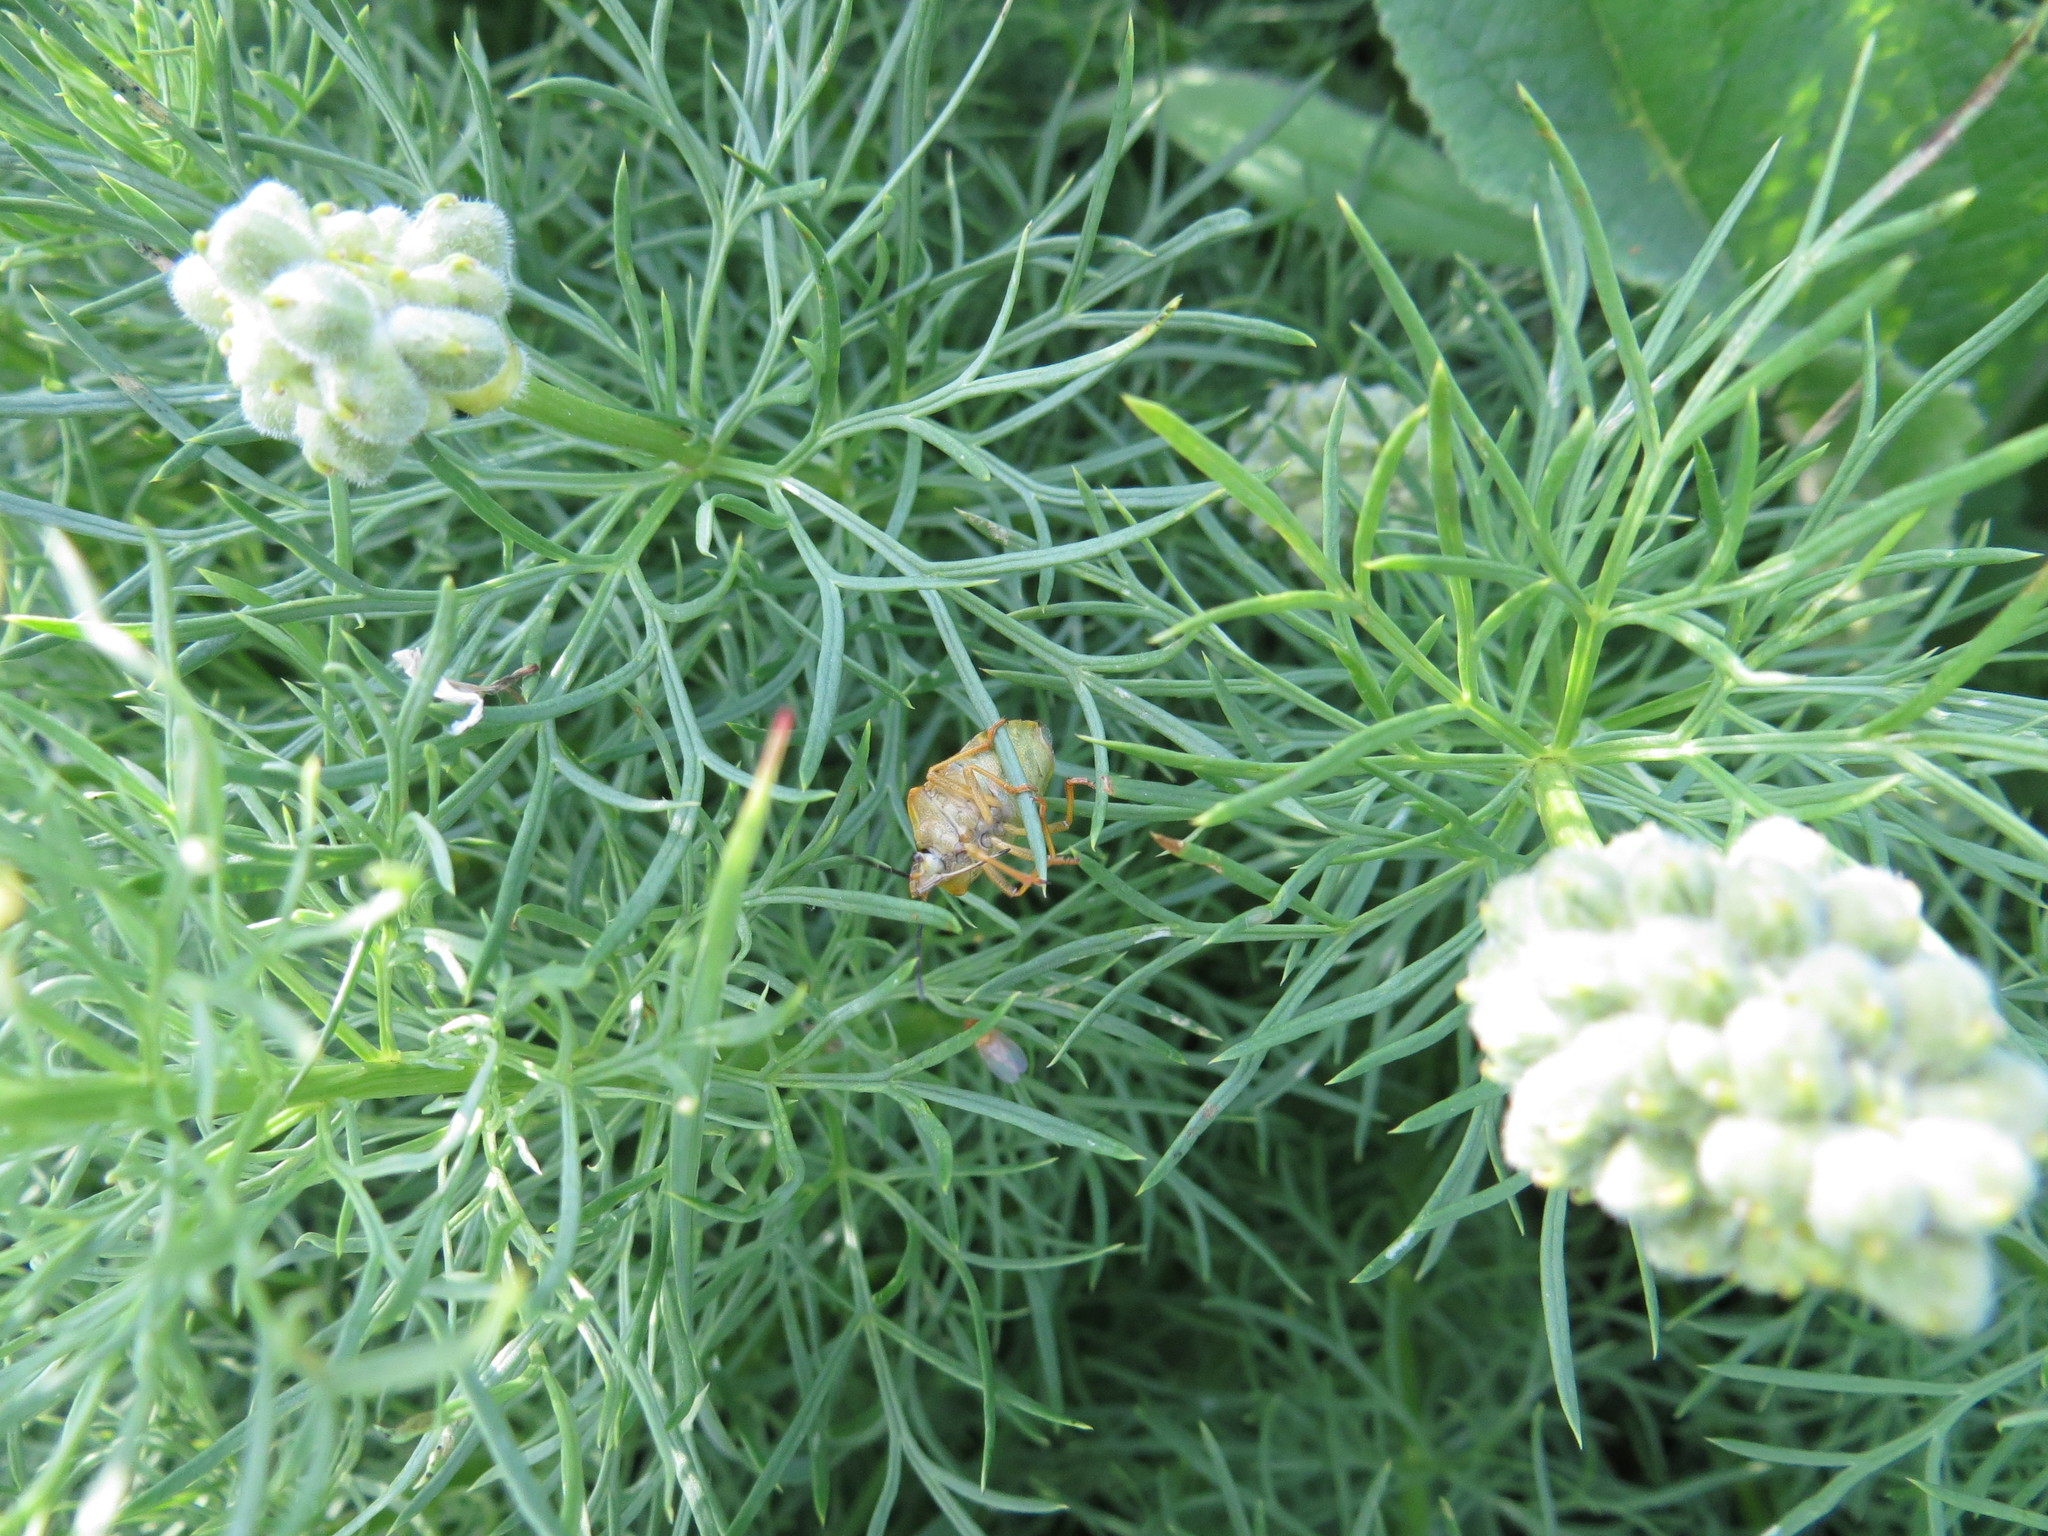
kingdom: Animalia
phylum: Arthropoda
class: Insecta
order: Hemiptera
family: Pentatomidae
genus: Carpocoris
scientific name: Carpocoris purpureipennis
